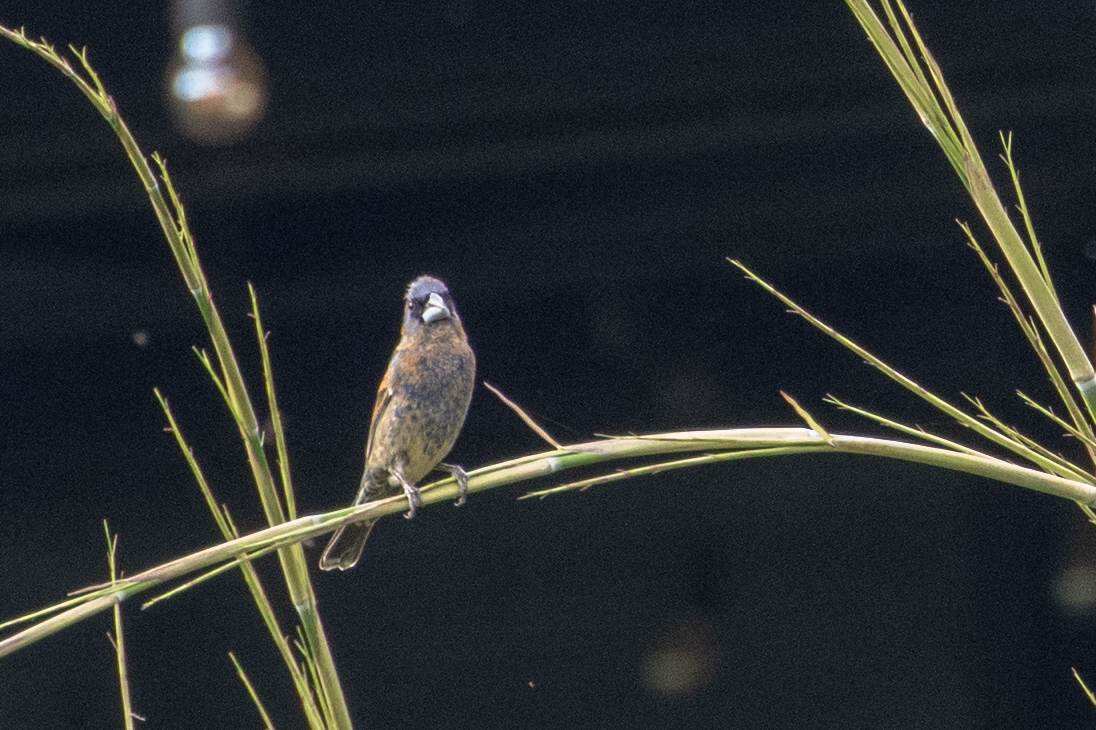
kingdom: Animalia
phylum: Chordata
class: Aves
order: Passeriformes
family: Cardinalidae
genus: Passerina
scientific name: Passerina caerulea
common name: Blue grosbeak
